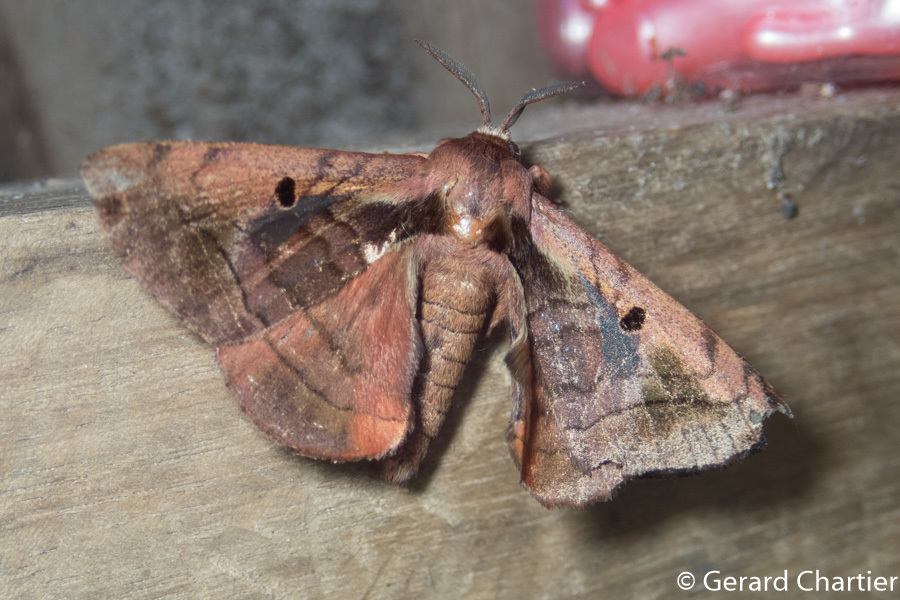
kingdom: Animalia
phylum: Arthropoda
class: Insecta
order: Lepidoptera
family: Endromidae
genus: Prismosticta
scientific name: Prismosticta microprisma
